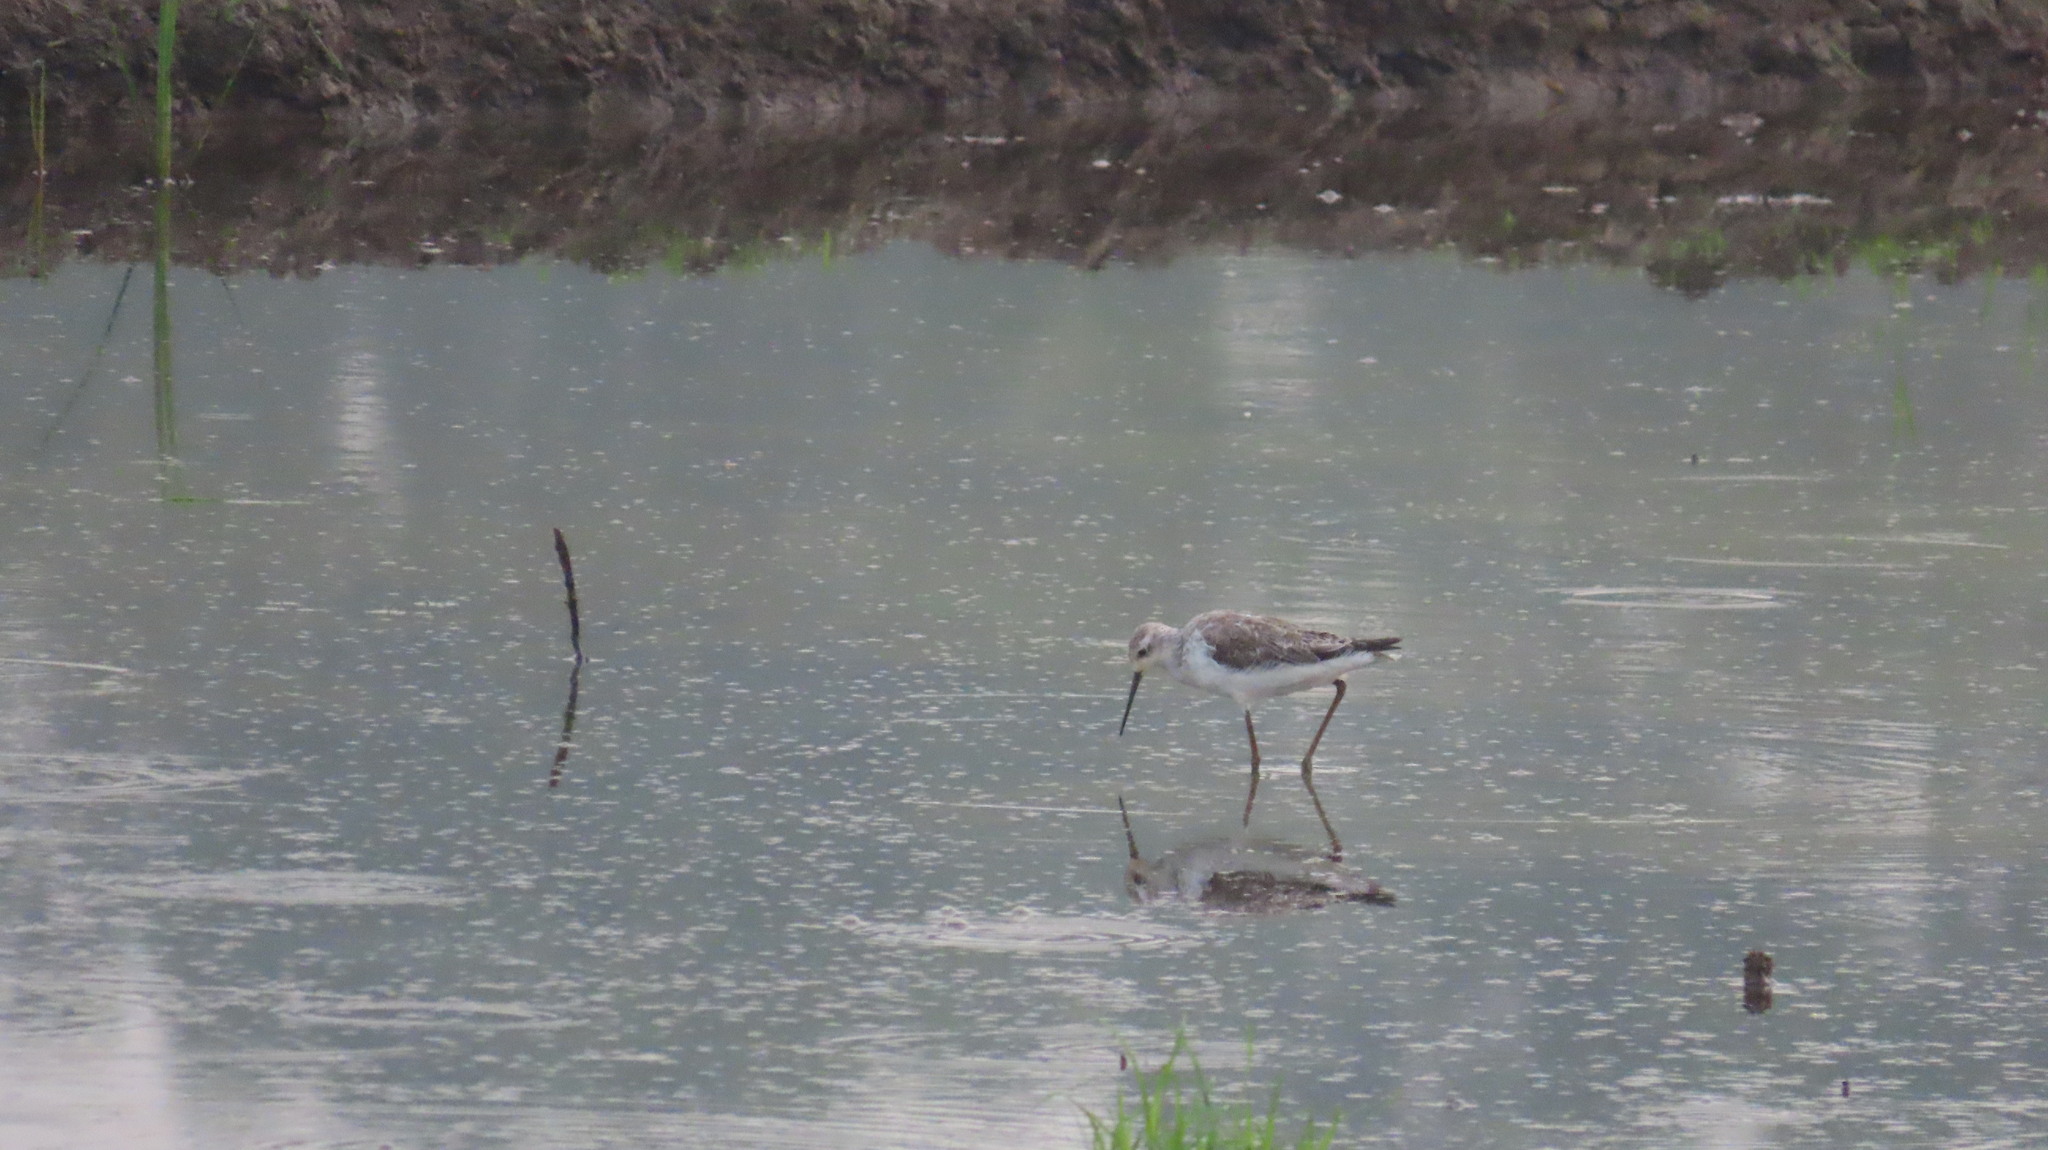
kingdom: Animalia
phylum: Chordata
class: Aves
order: Charadriiformes
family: Scolopacidae
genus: Tringa
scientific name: Tringa stagnatilis
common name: Marsh sandpiper
